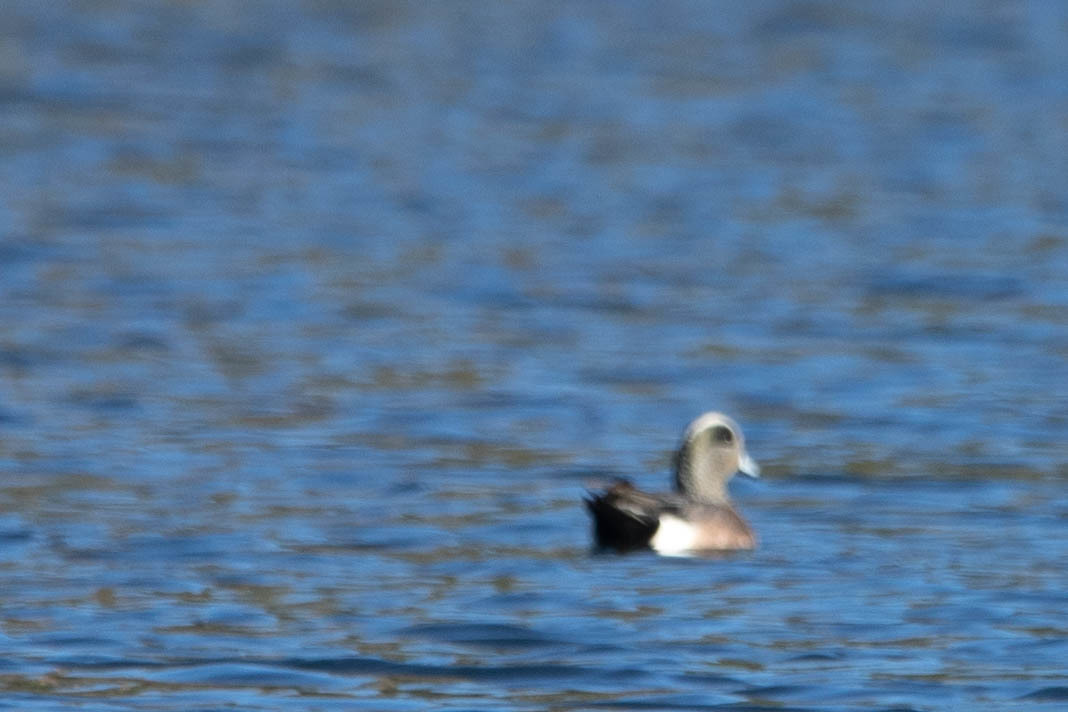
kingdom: Animalia
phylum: Chordata
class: Aves
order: Anseriformes
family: Anatidae
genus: Mareca
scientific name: Mareca americana
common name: American wigeon
